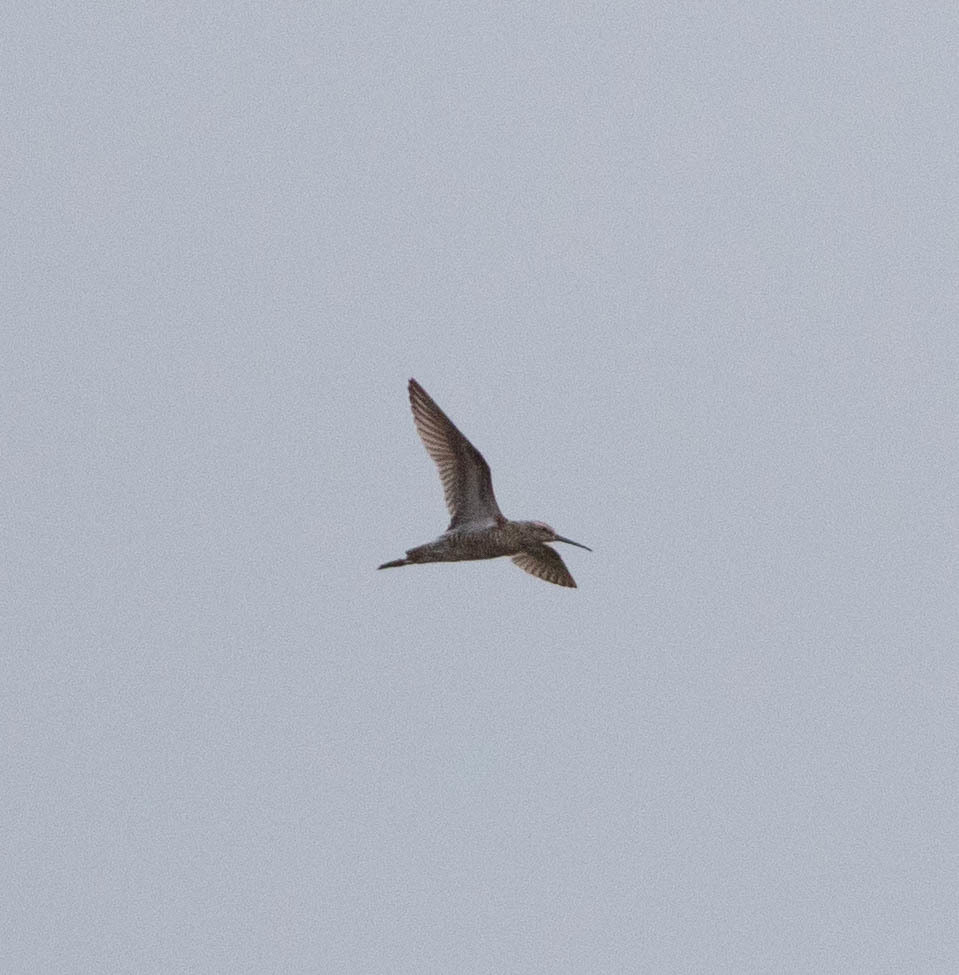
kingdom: Animalia
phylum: Chordata
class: Aves
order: Charadriiformes
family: Scolopacidae
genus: Calidris
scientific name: Calidris himantopus
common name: Stilt sandpiper
